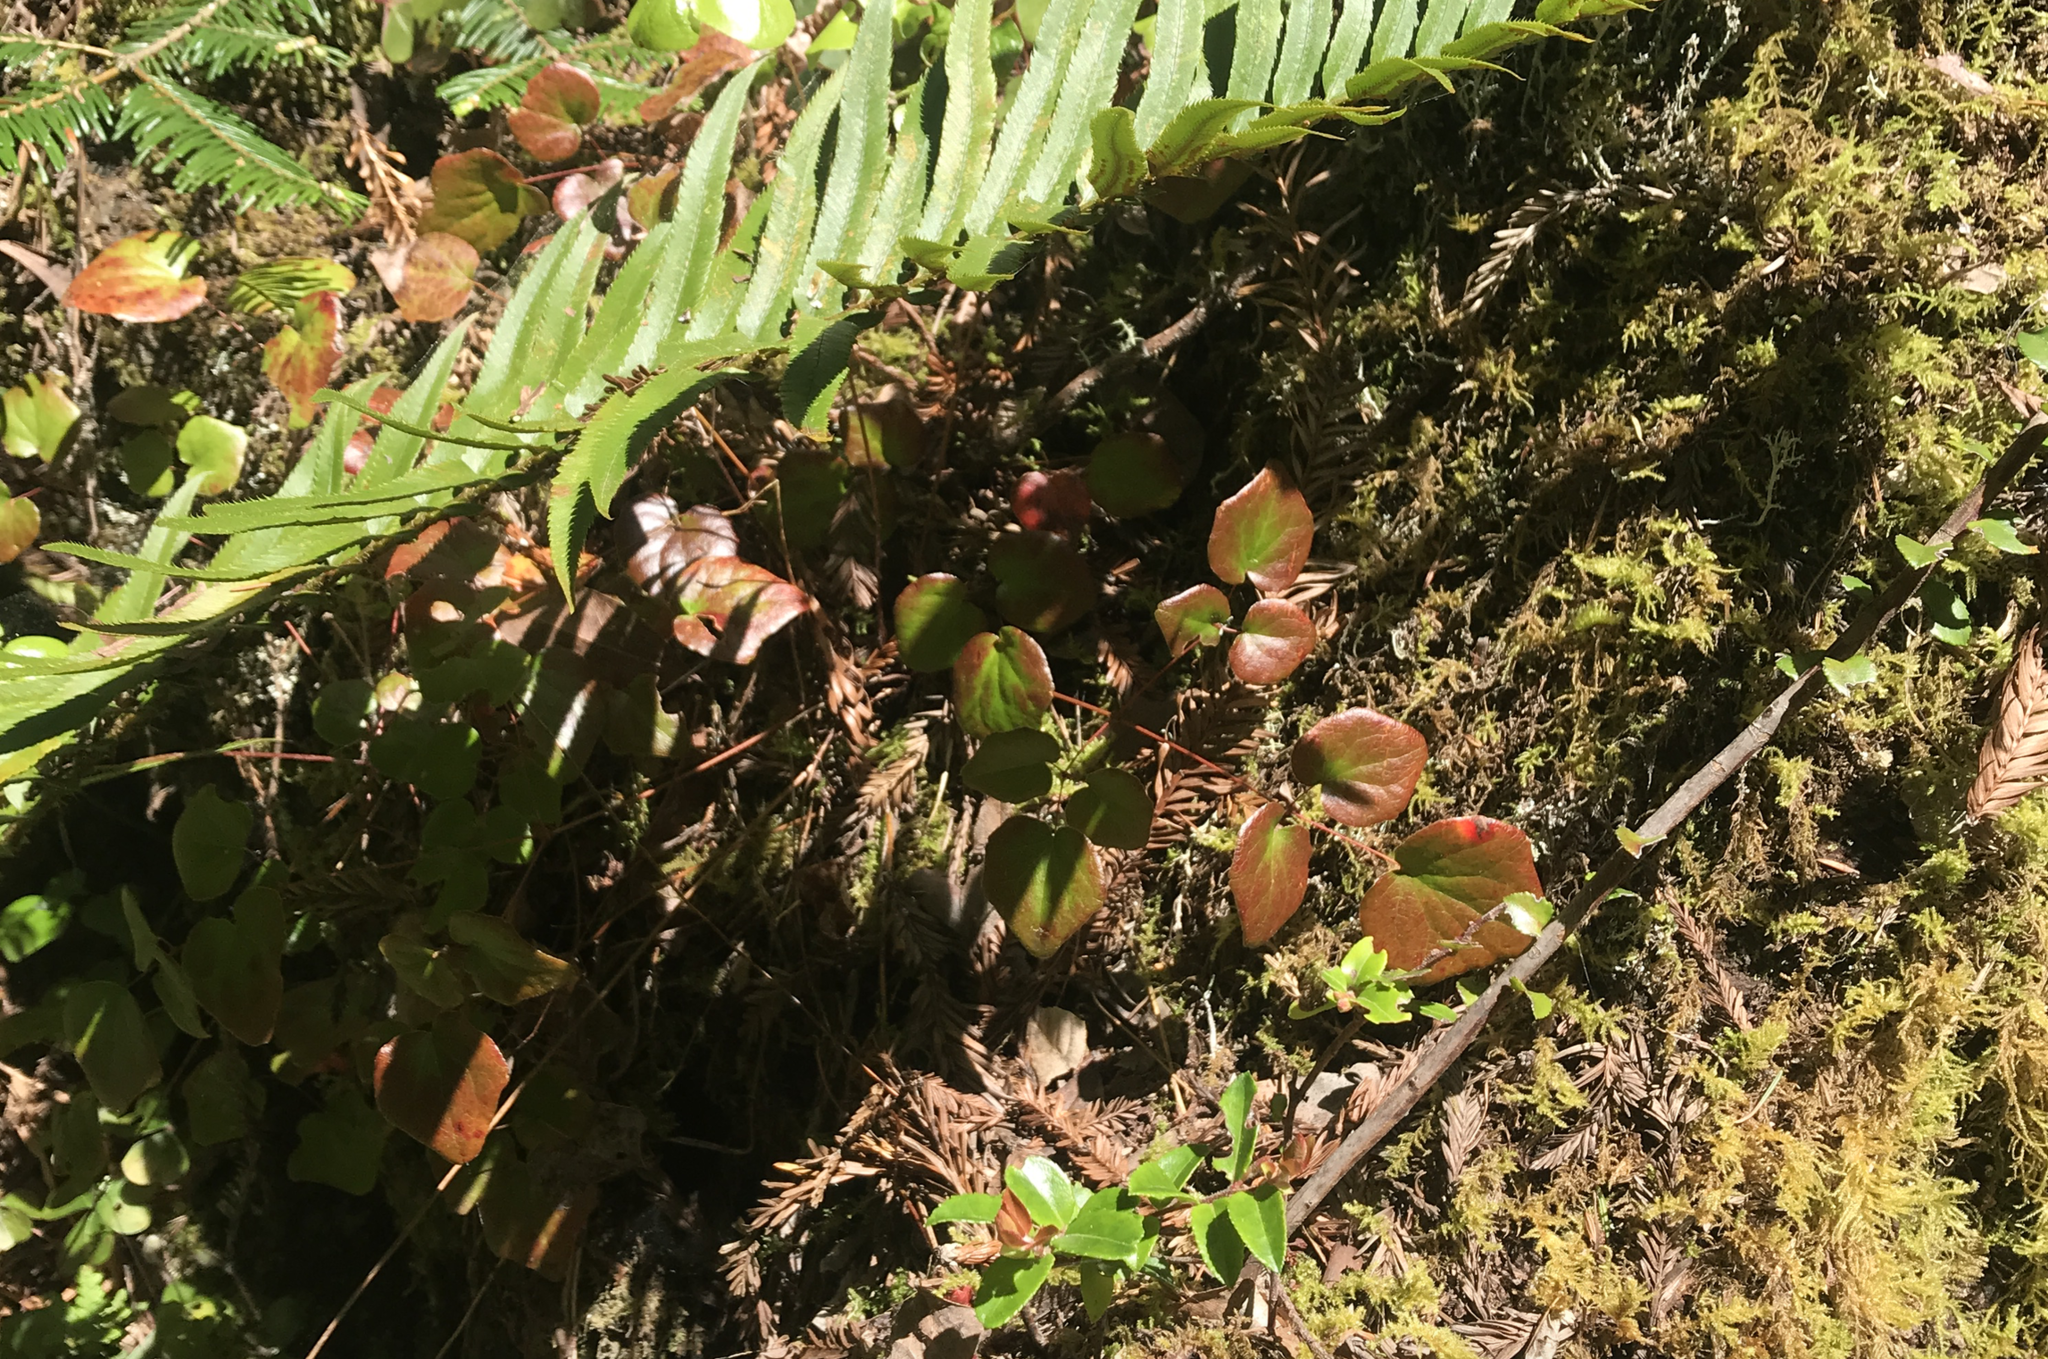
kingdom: Plantae
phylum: Tracheophyta
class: Magnoliopsida
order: Ranunculales
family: Berberidaceae
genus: Vancouveria
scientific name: Vancouveria planipetala
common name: Redwood-ivy
